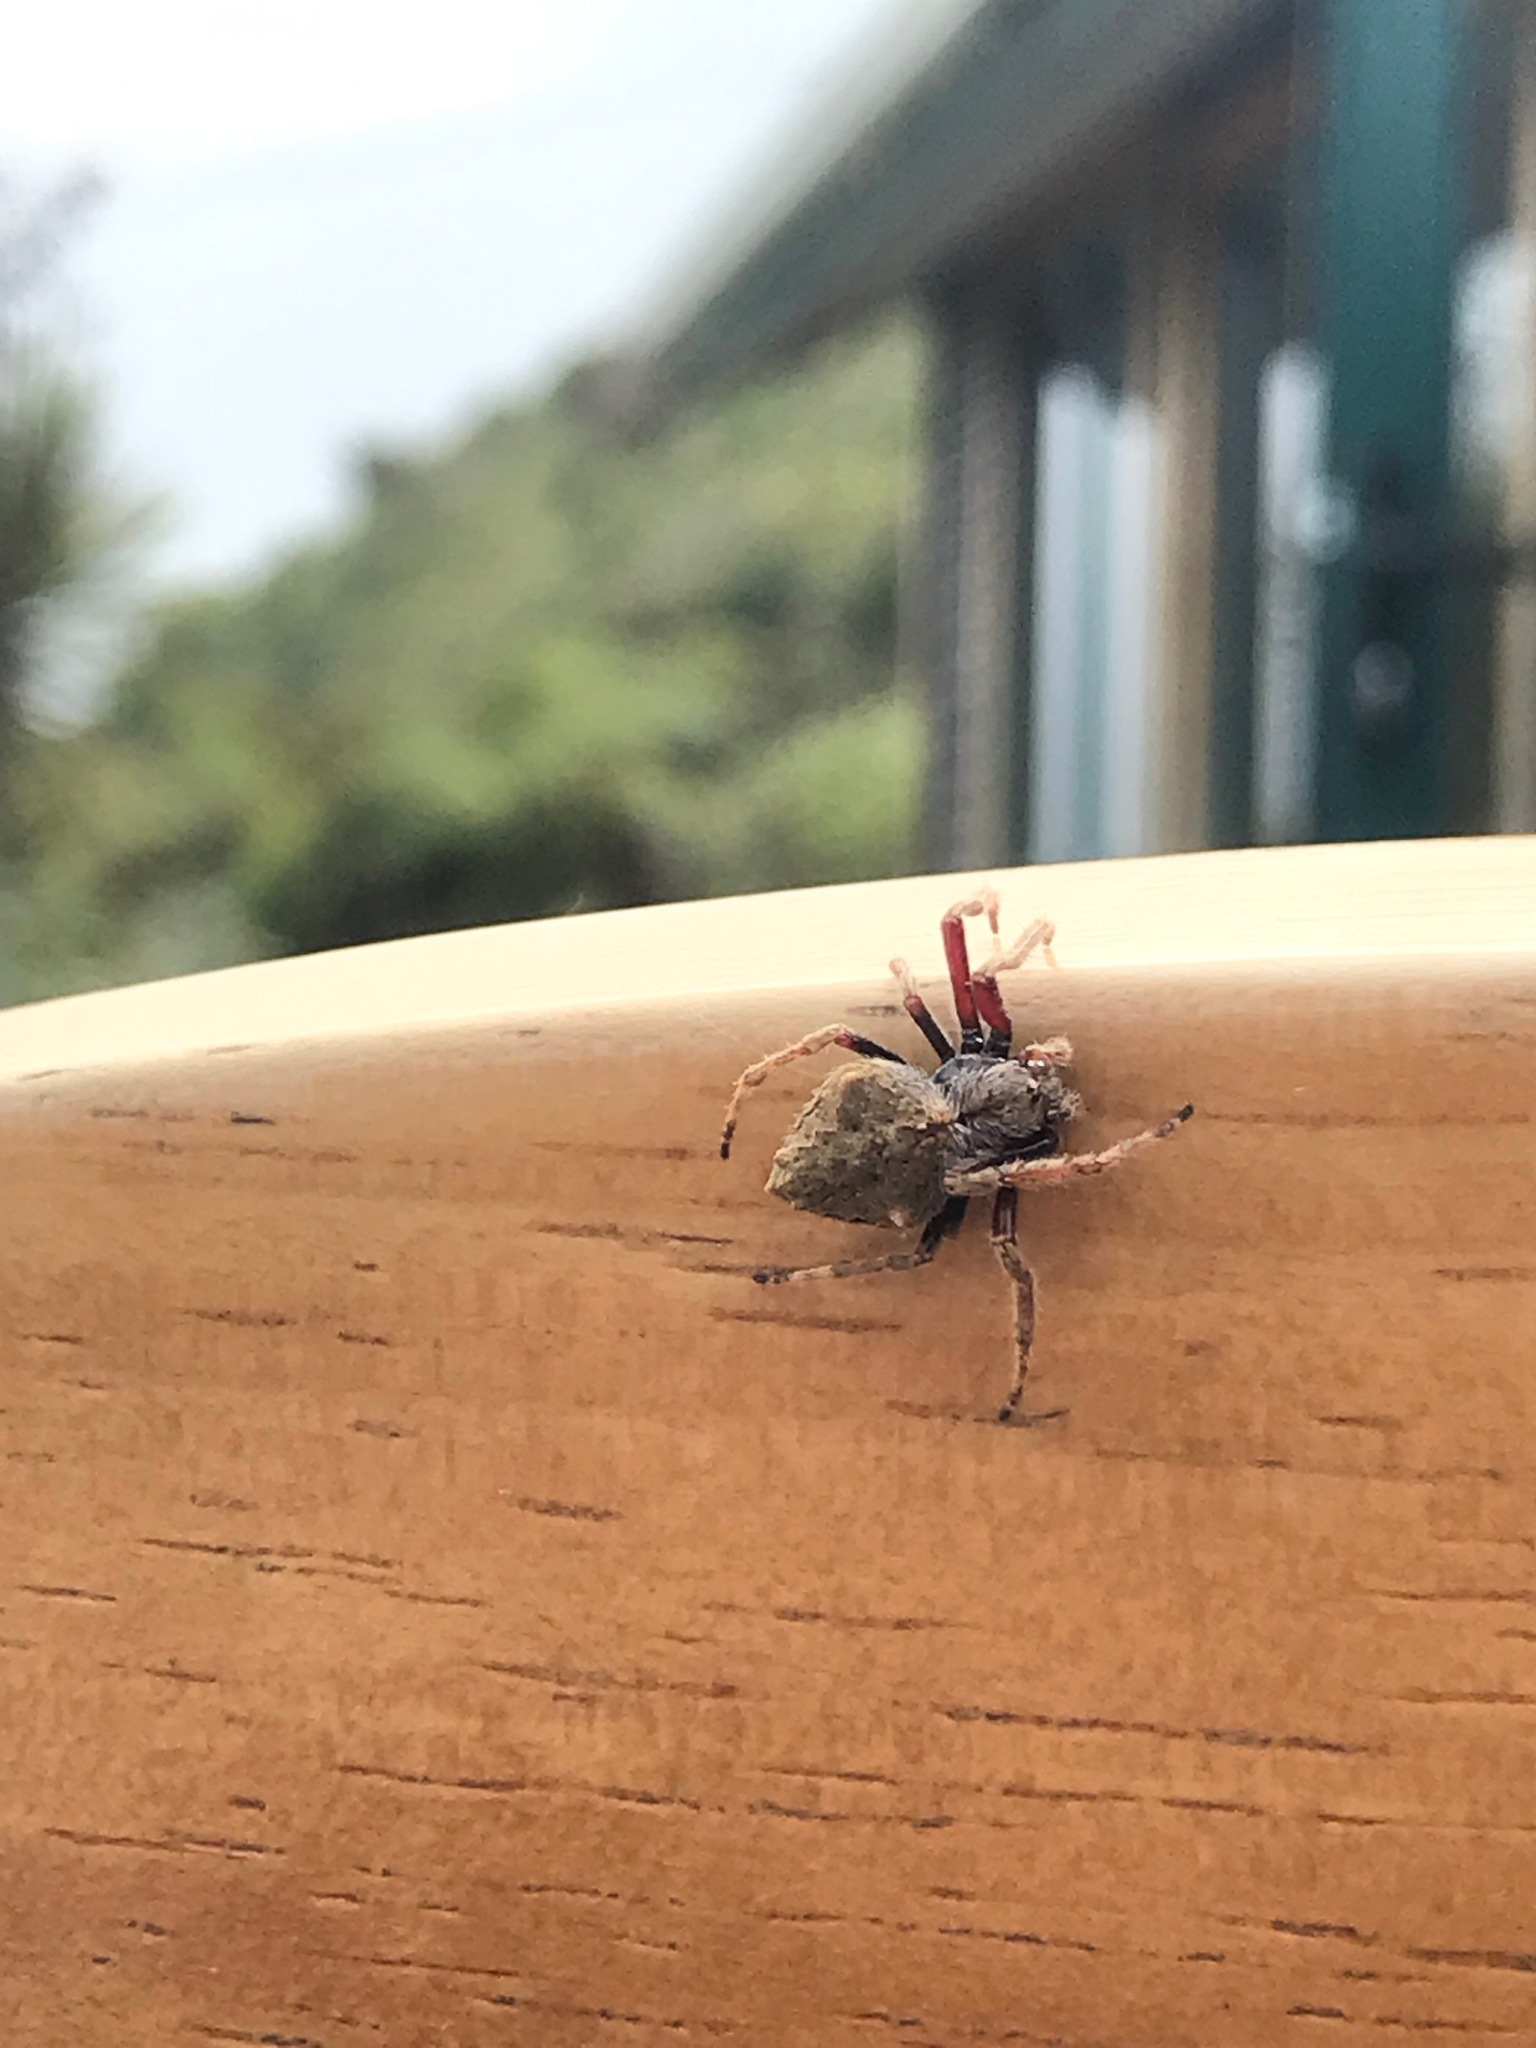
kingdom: Animalia
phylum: Arthropoda
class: Arachnida
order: Araneae
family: Araneidae
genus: Eriophora
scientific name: Eriophora pustulosa
